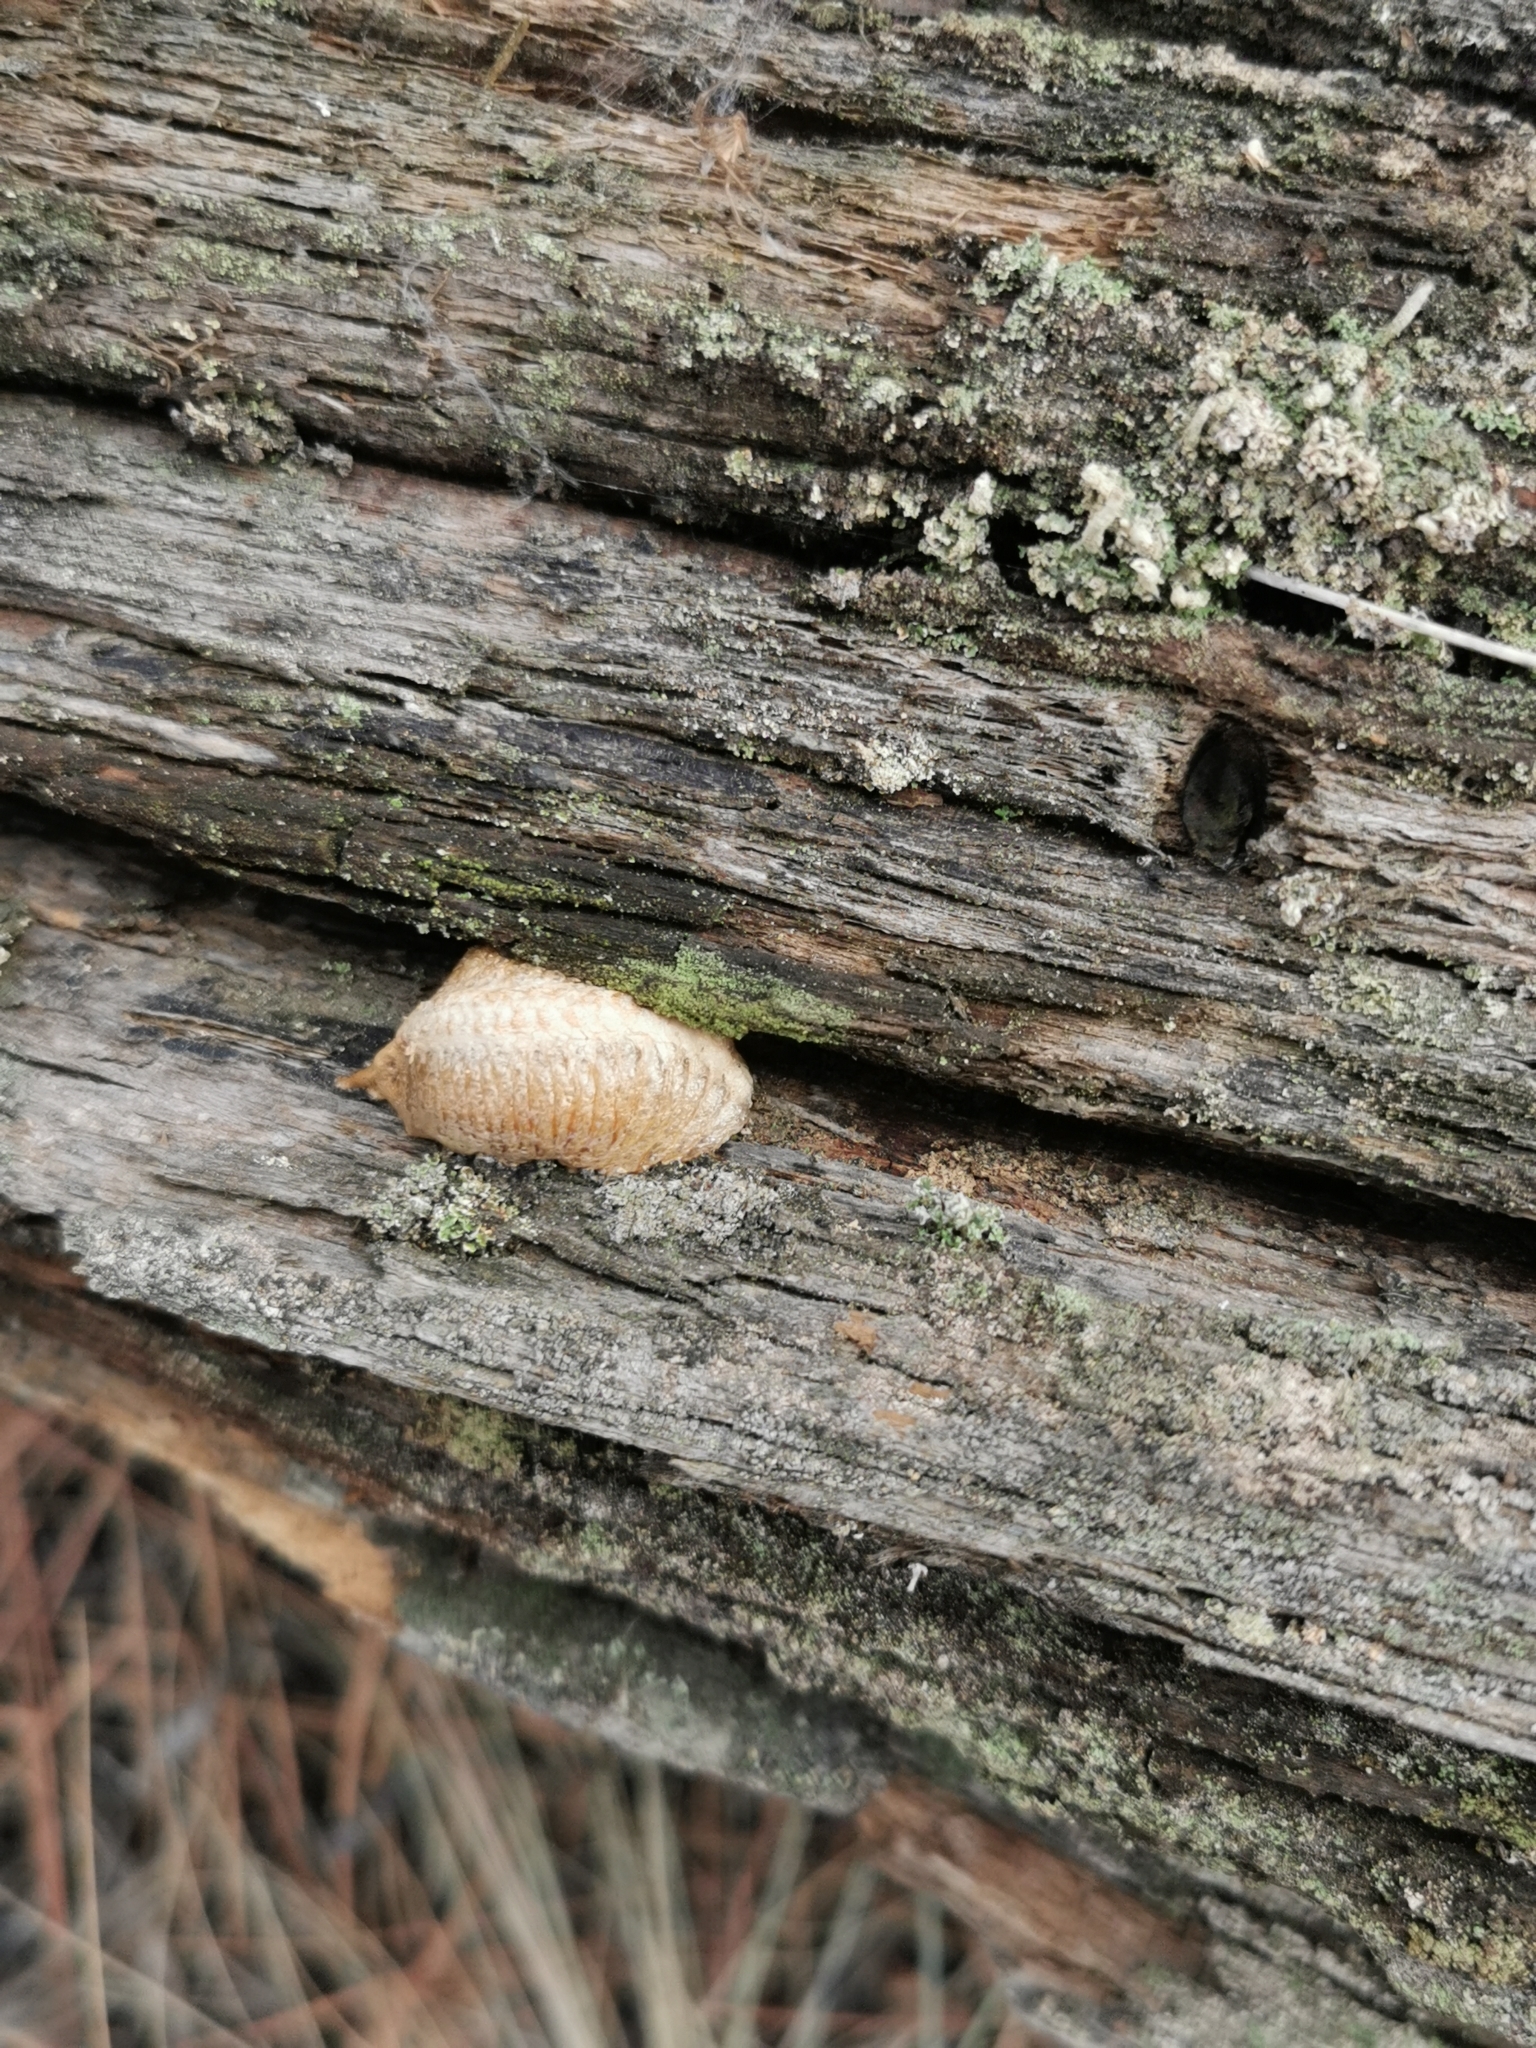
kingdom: Animalia
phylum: Arthropoda
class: Insecta
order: Mantodea
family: Mantidae
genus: Mantis
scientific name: Mantis religiosa
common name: Praying mantis
